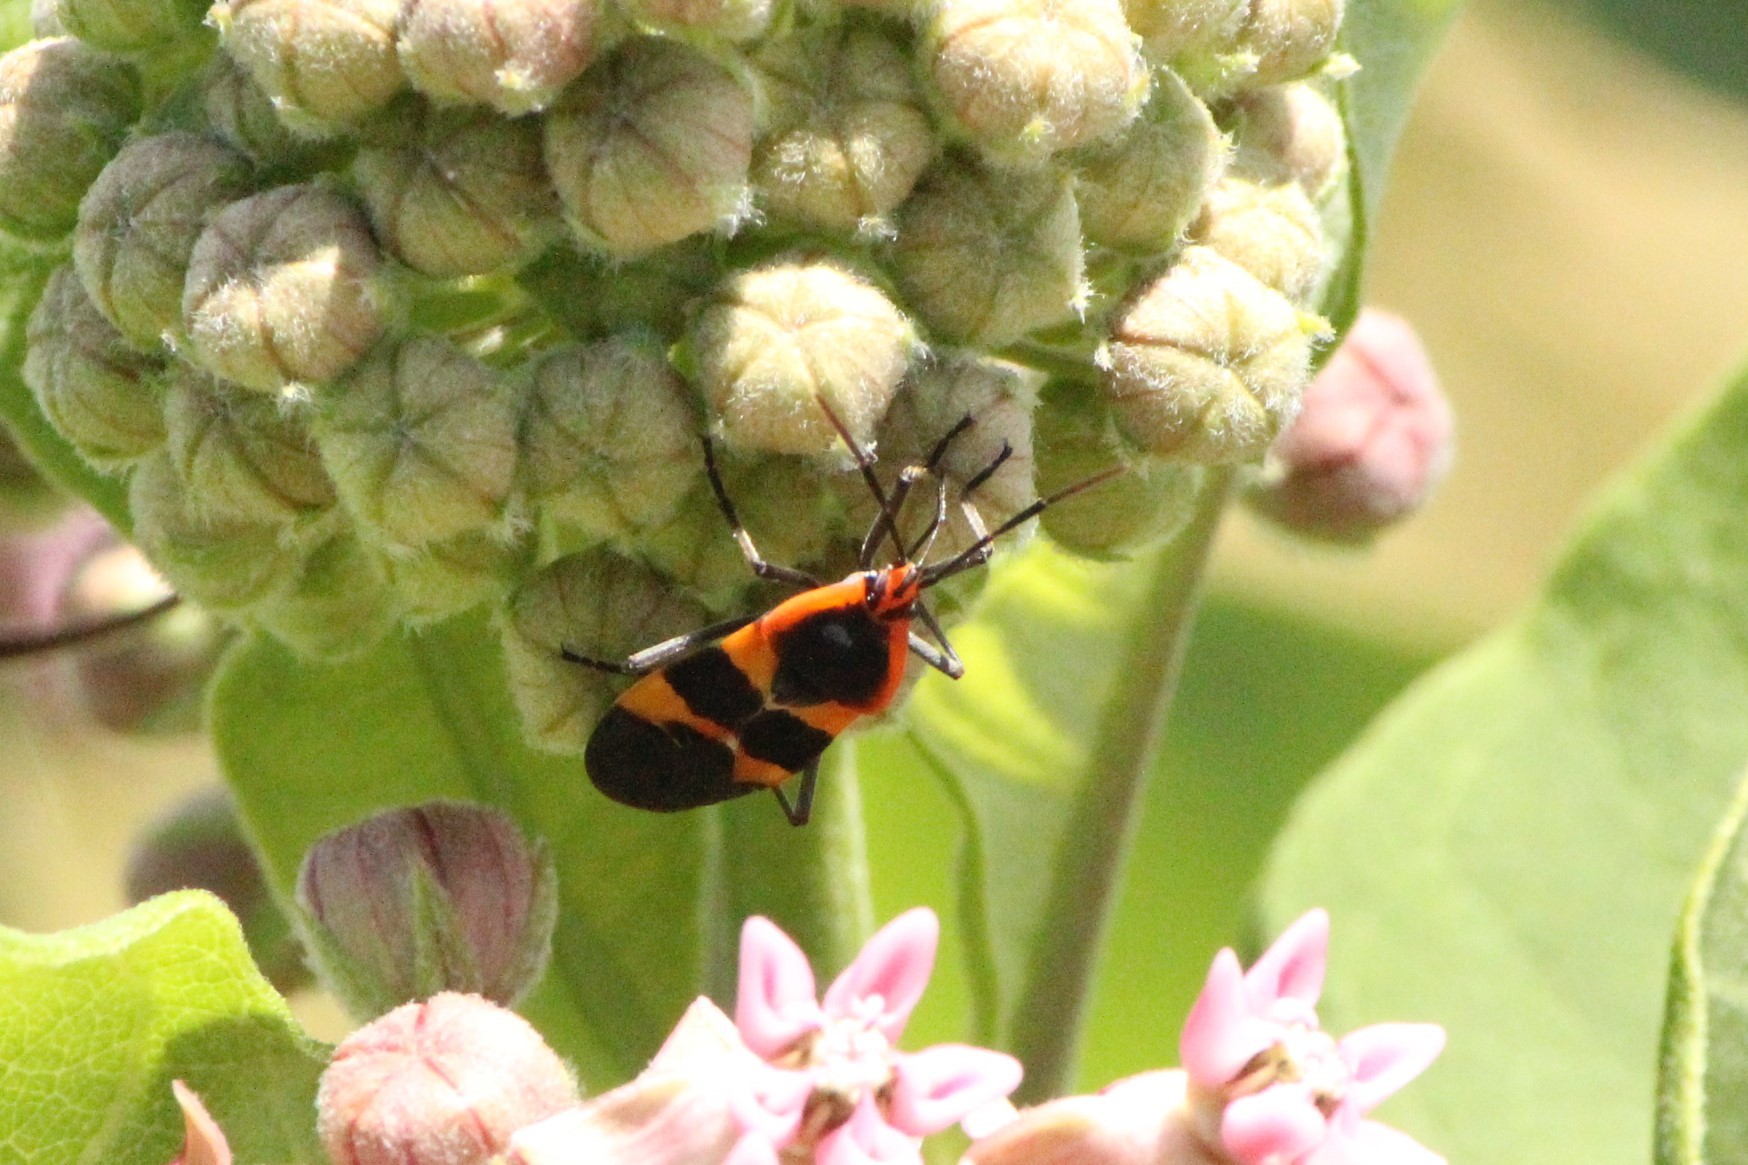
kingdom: Animalia
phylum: Arthropoda
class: Insecta
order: Hemiptera
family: Lygaeidae
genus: Oncopeltus
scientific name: Oncopeltus fasciatus
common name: Large milkweed bug
